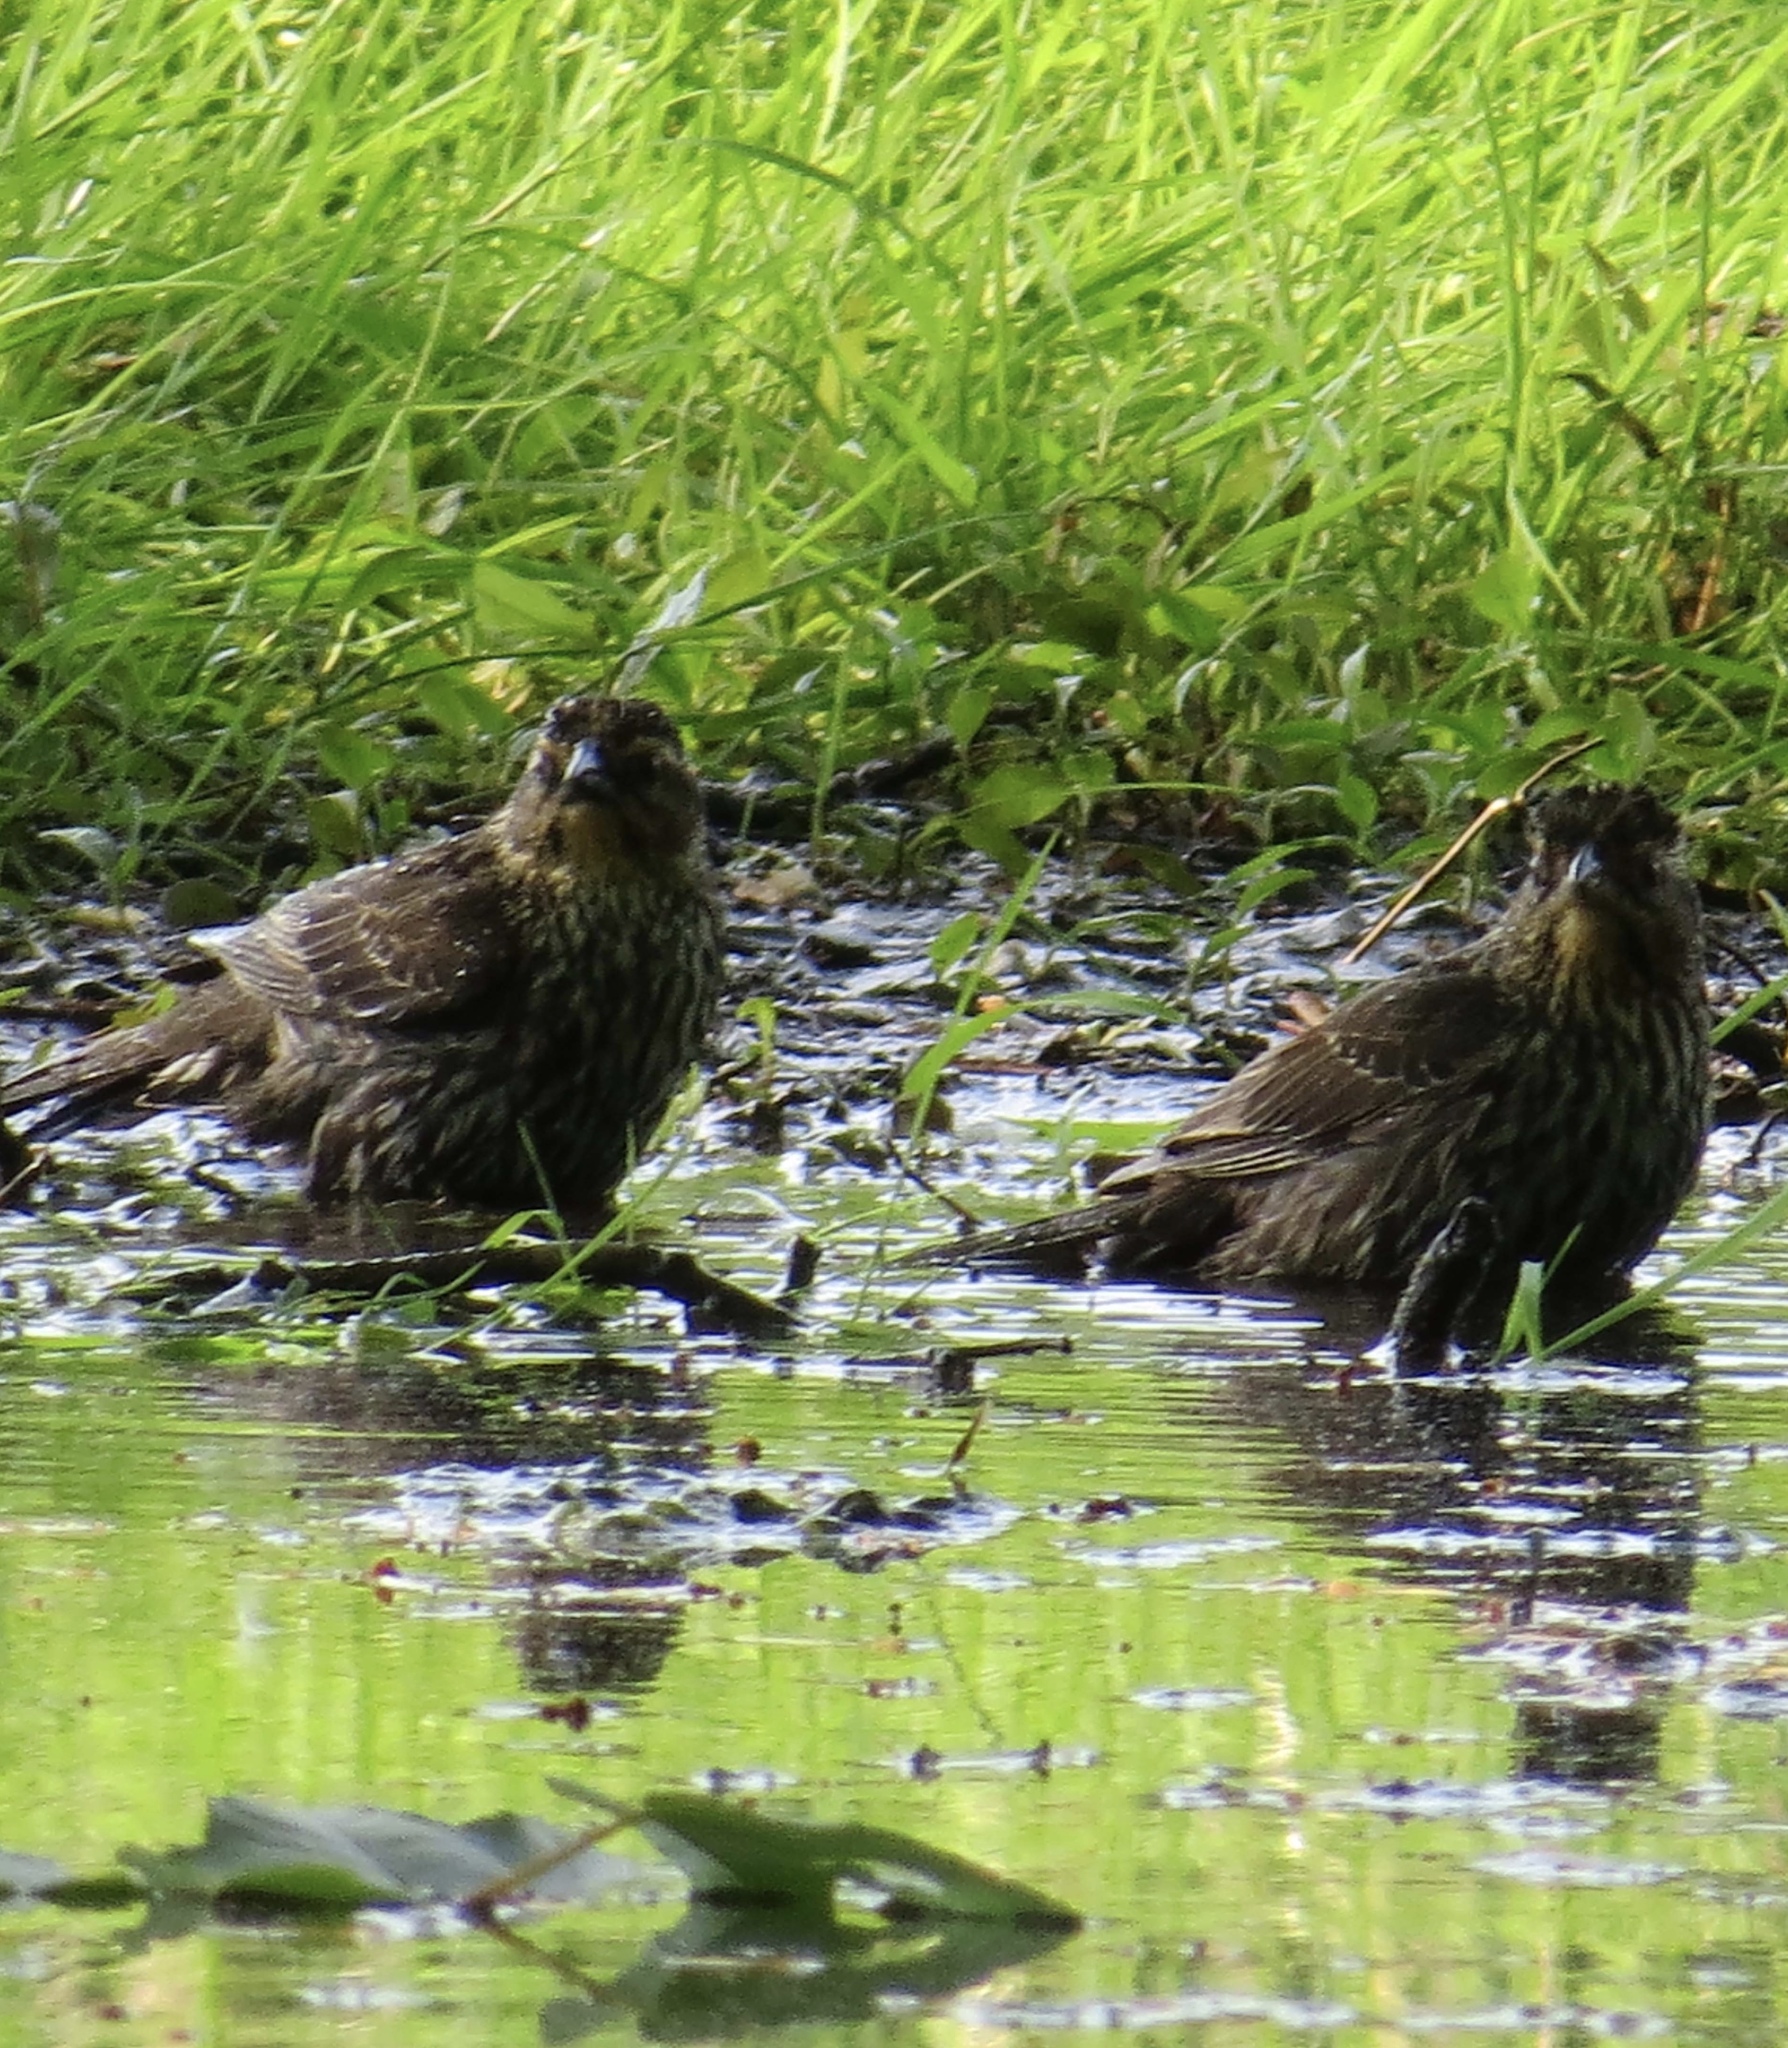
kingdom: Animalia
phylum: Chordata
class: Aves
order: Passeriformes
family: Icteridae
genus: Agelaius
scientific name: Agelaius phoeniceus
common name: Red-winged blackbird
